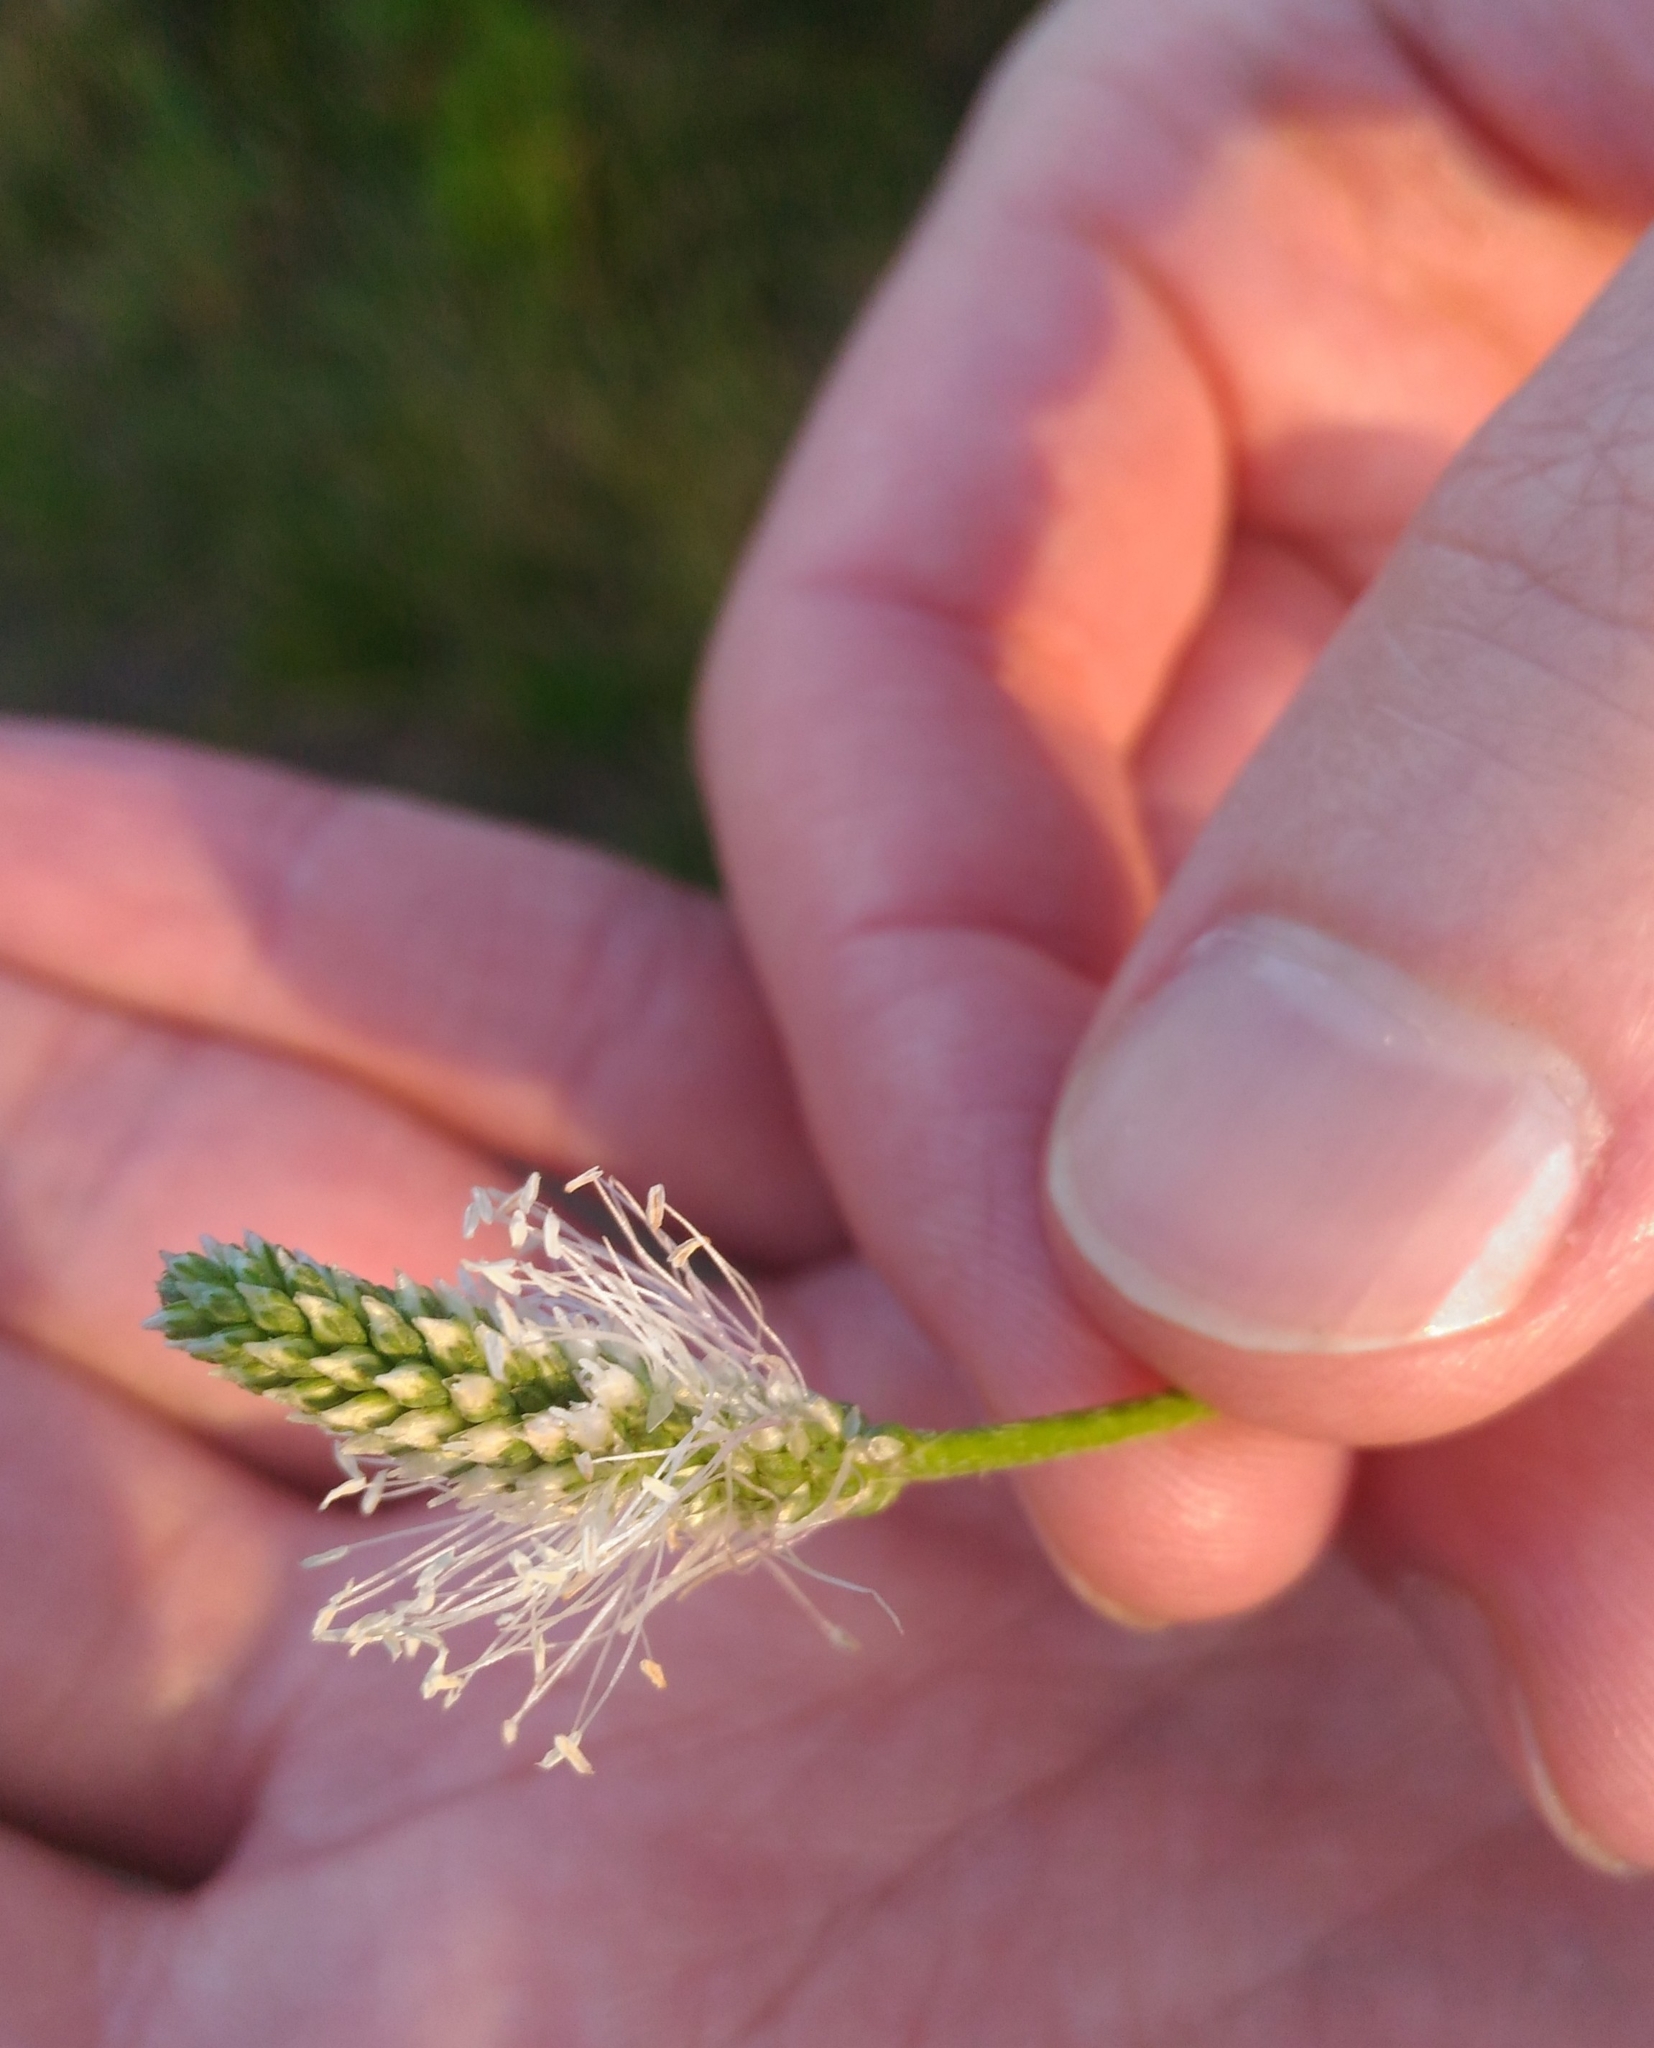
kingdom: Plantae
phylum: Tracheophyta
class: Magnoliopsida
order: Lamiales
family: Plantaginaceae
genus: Plantago
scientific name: Plantago media
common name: Hoary plantain
